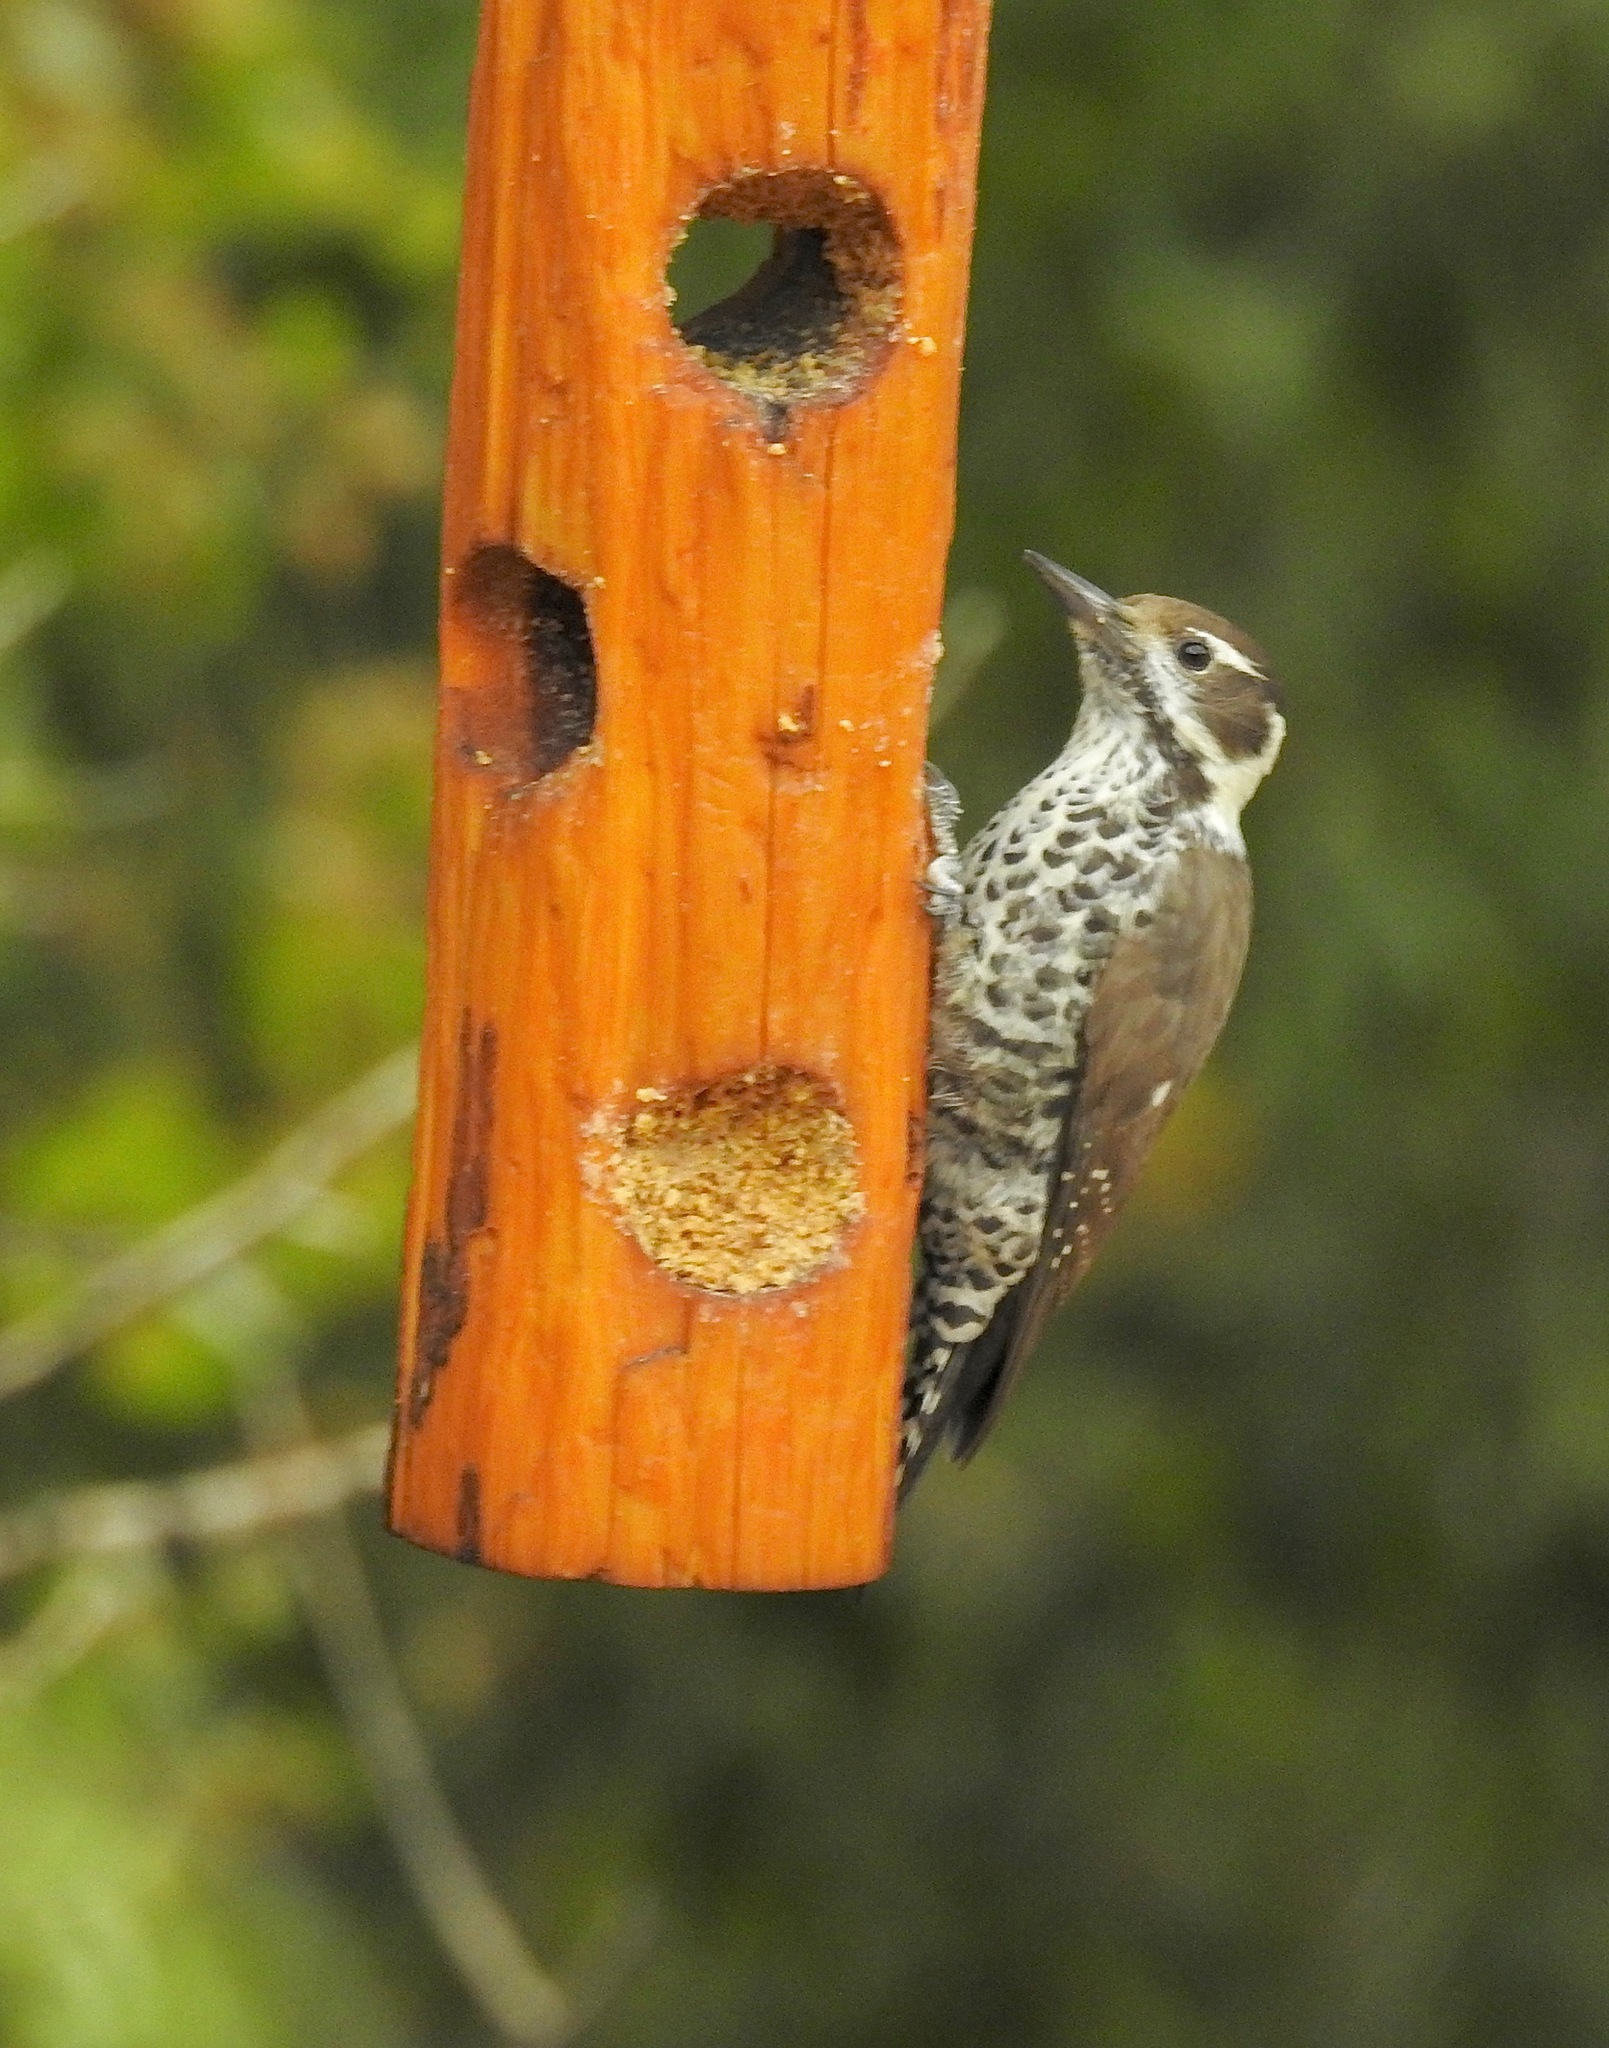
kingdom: Animalia
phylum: Chordata
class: Aves
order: Piciformes
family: Picidae
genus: Leuconotopicus
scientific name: Leuconotopicus arizonae
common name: Arizona woodpecker
